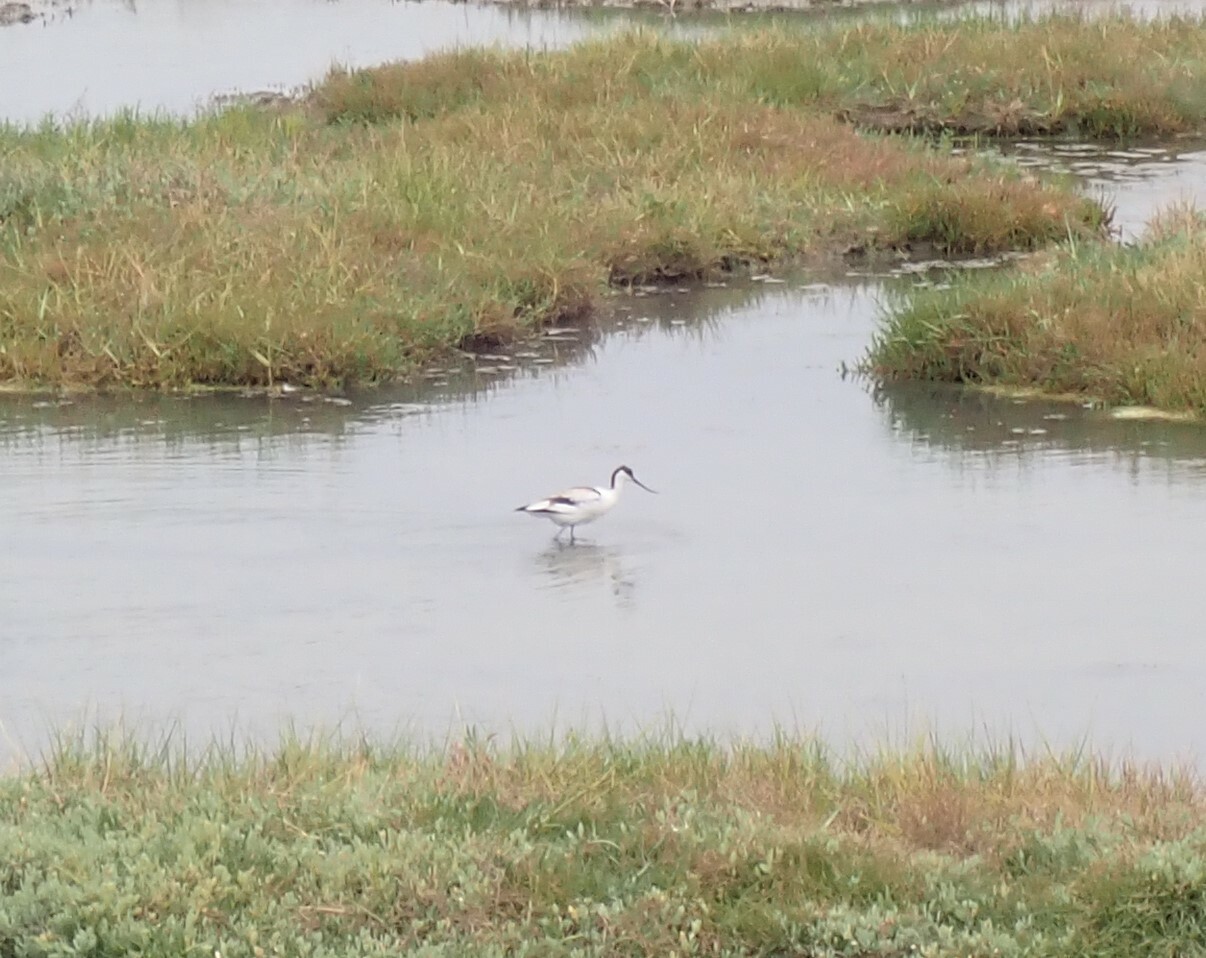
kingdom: Animalia
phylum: Chordata
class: Aves
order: Charadriiformes
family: Recurvirostridae
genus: Recurvirostra
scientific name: Recurvirostra avosetta
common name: Pied avocet
